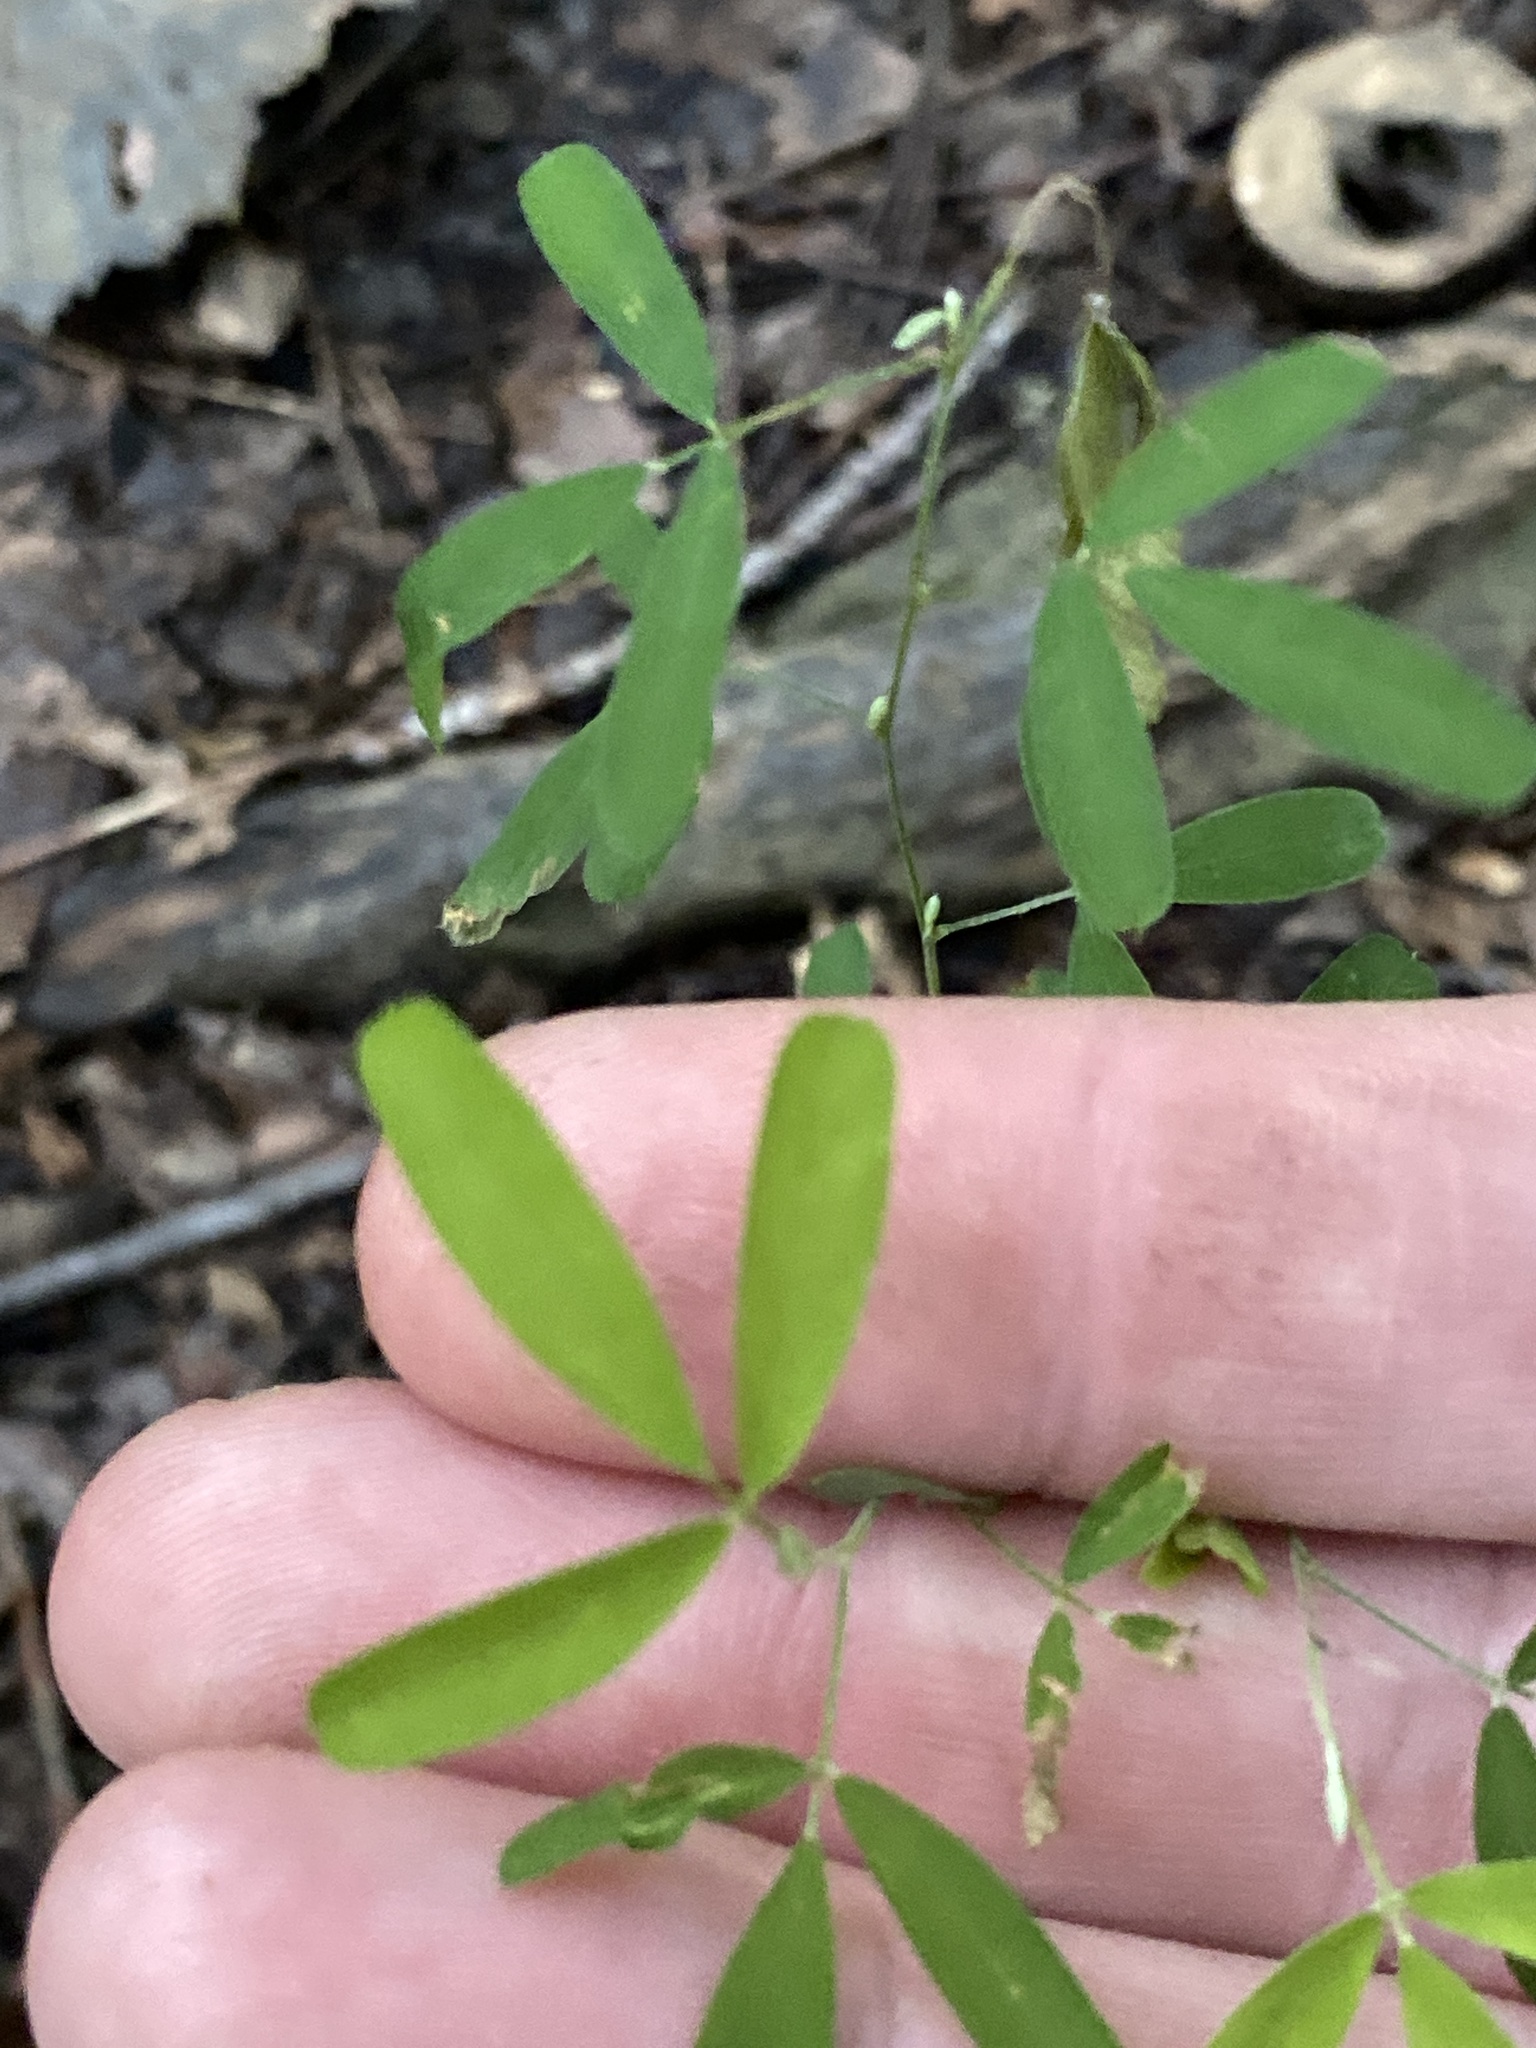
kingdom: Plantae
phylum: Tracheophyta
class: Magnoliopsida
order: Fabales
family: Fabaceae
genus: Lespedeza
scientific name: Lespedeza cuneata
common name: Chinese bush-clover
